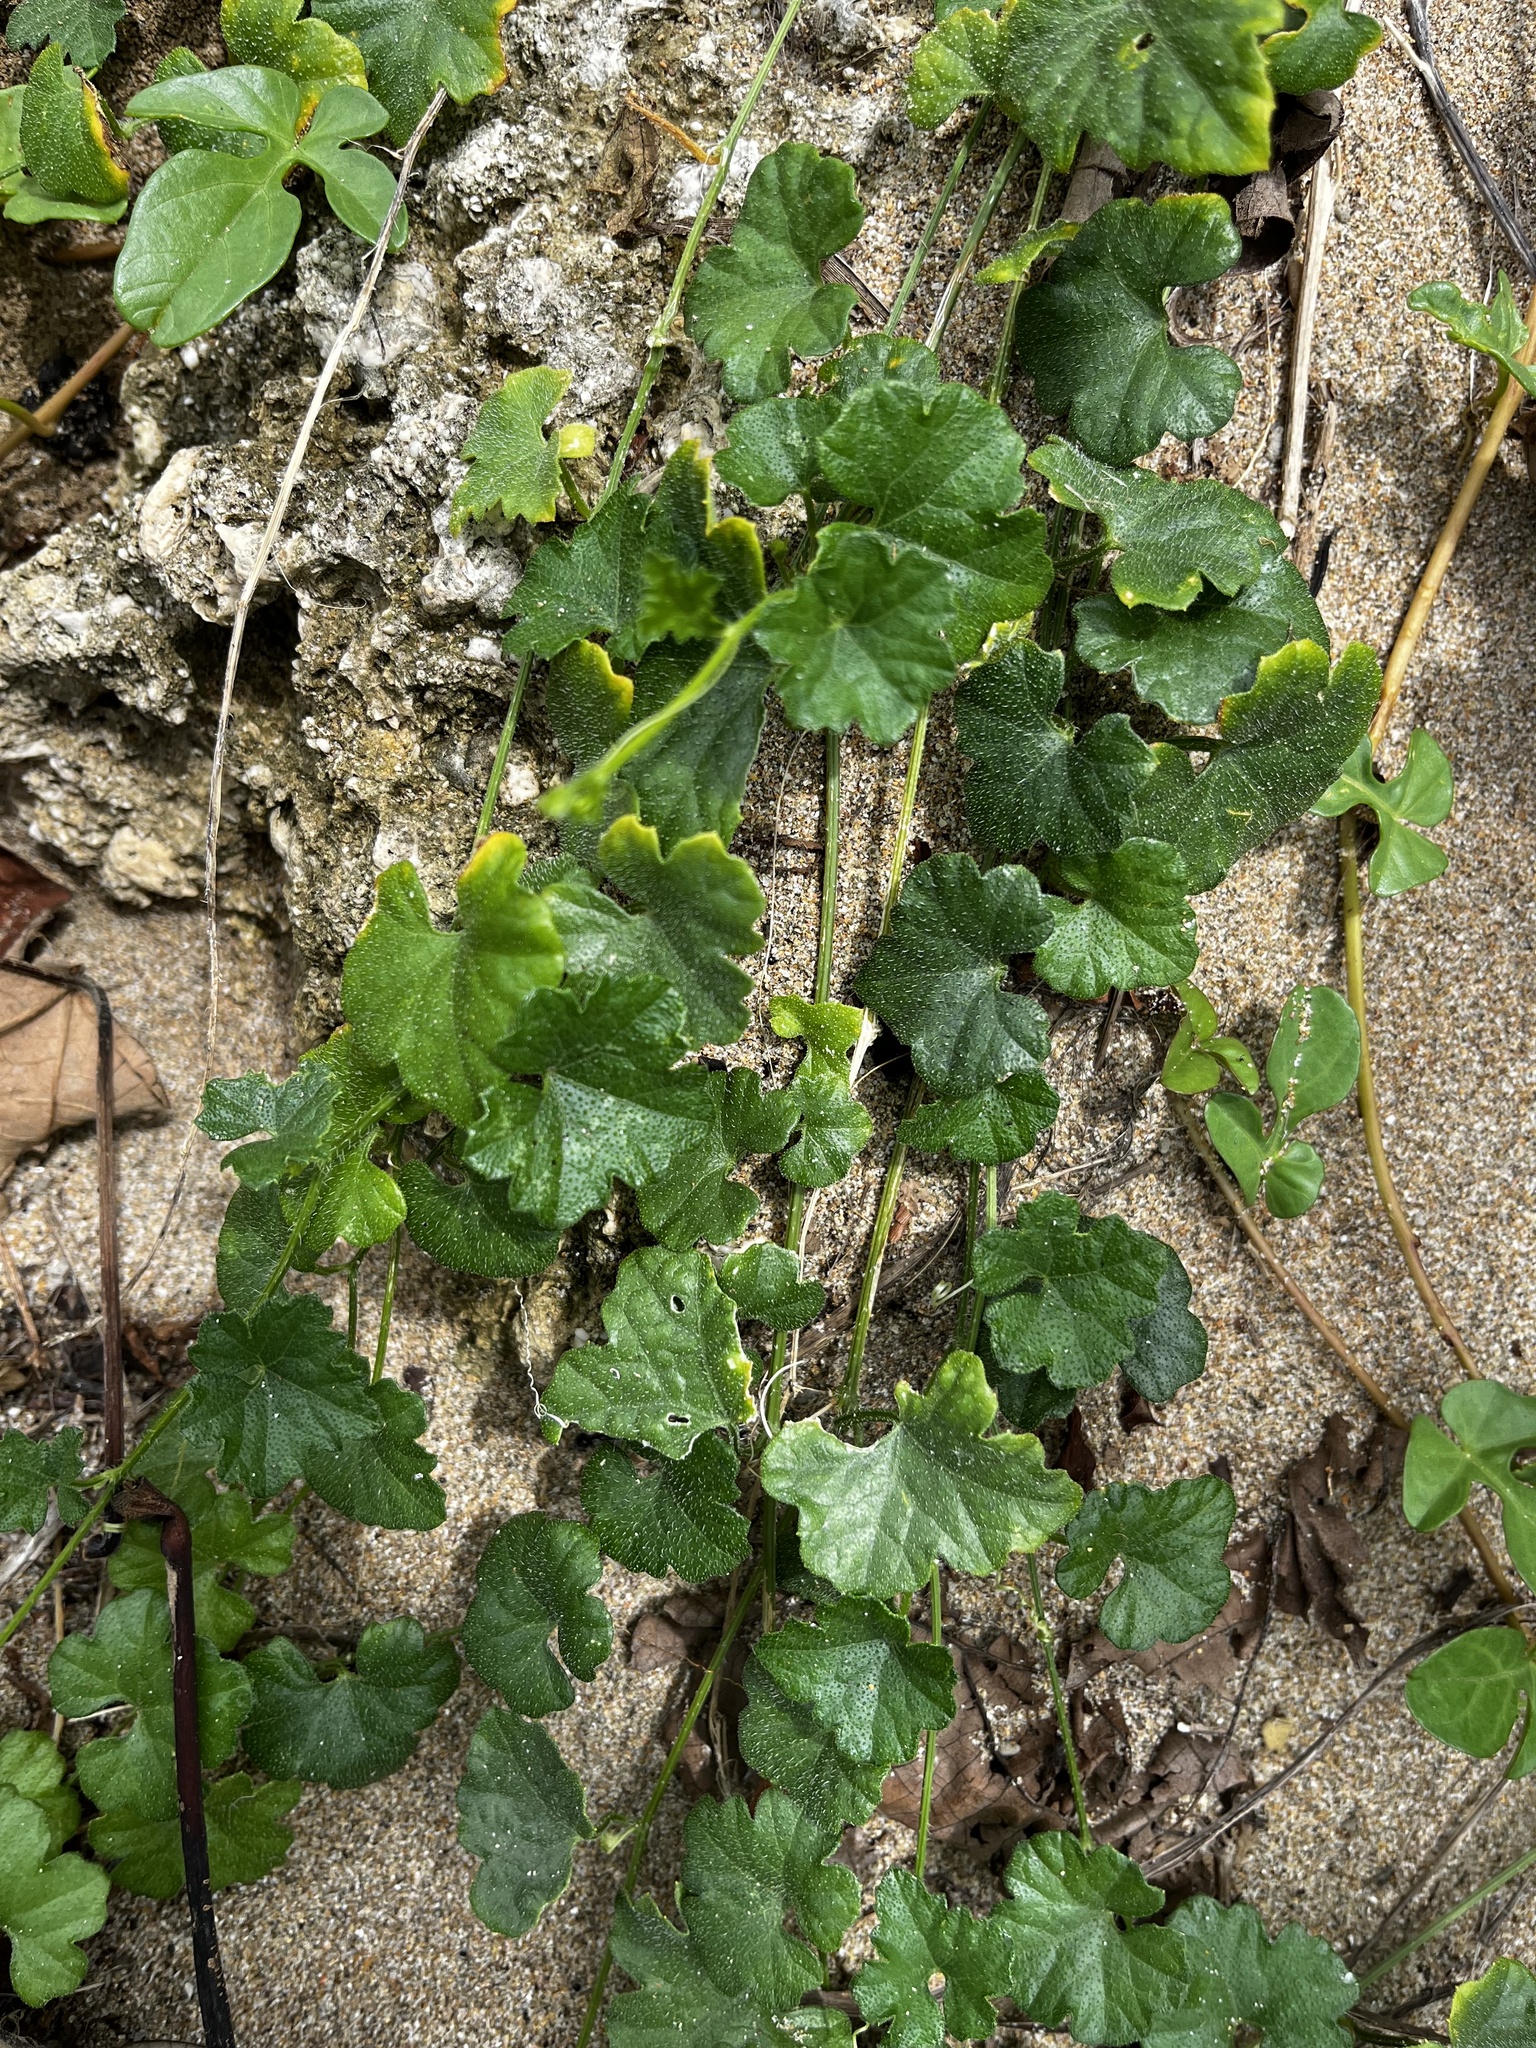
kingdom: Plantae
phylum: Tracheophyta
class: Magnoliopsida
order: Cucurbitales
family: Cucurbitaceae
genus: Cucumis
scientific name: Cucumis maderaspatanus
